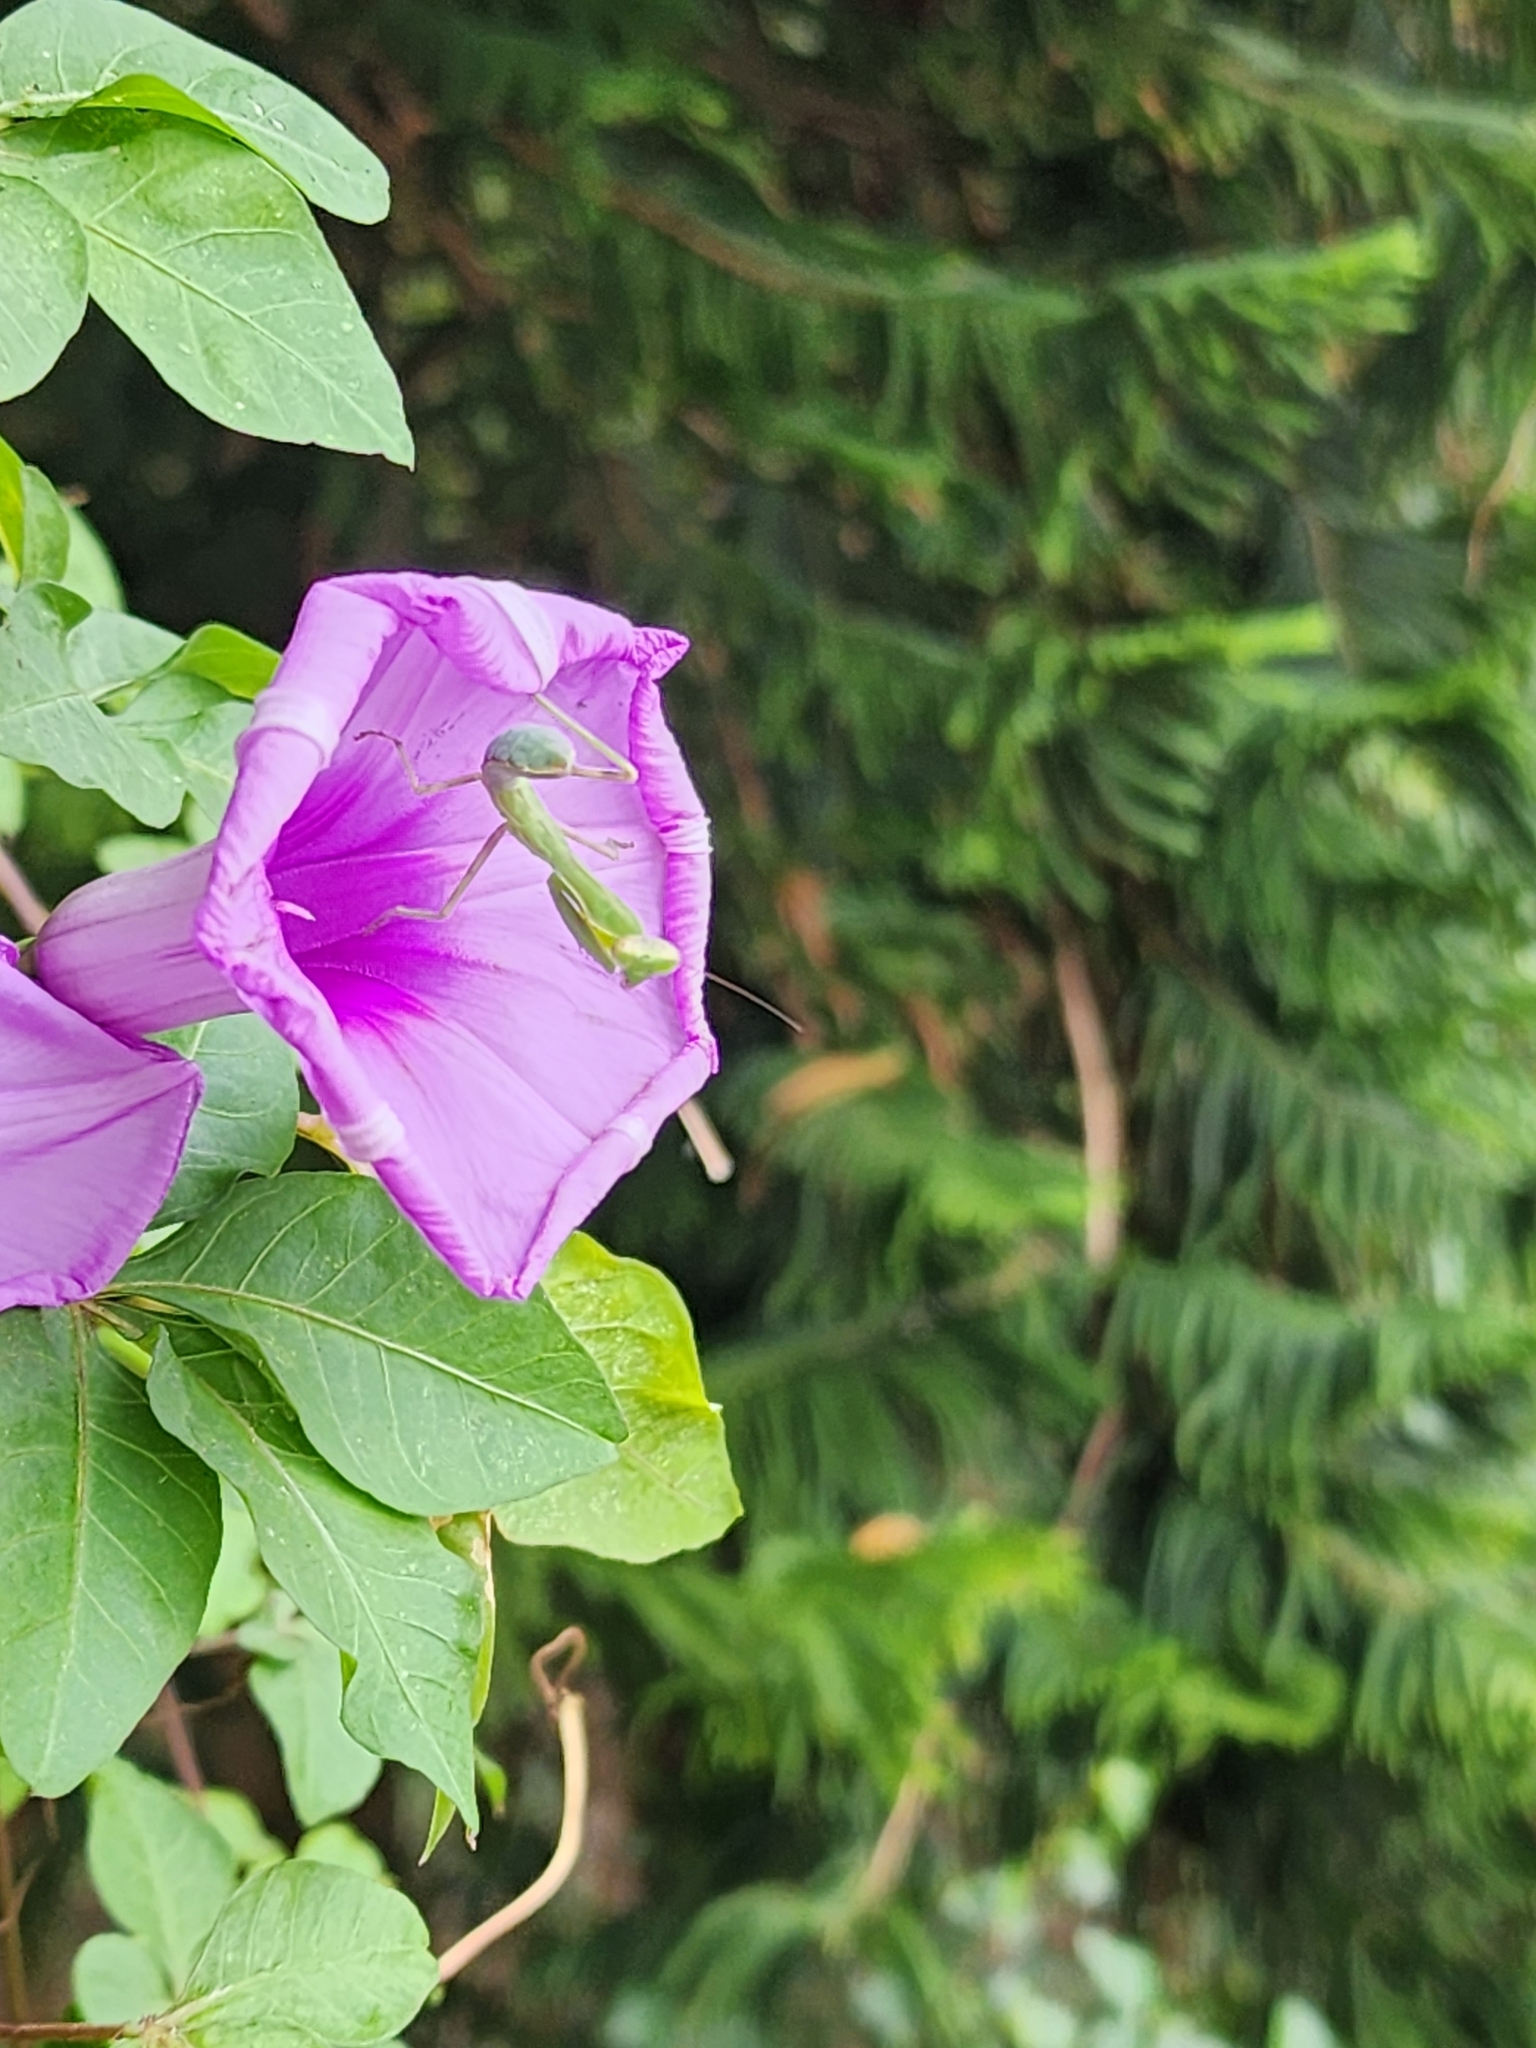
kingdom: Animalia
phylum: Arthropoda
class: Insecta
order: Mantodea
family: Mantidae
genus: Hierodula
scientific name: Hierodula patellifera
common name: Asian mantis
